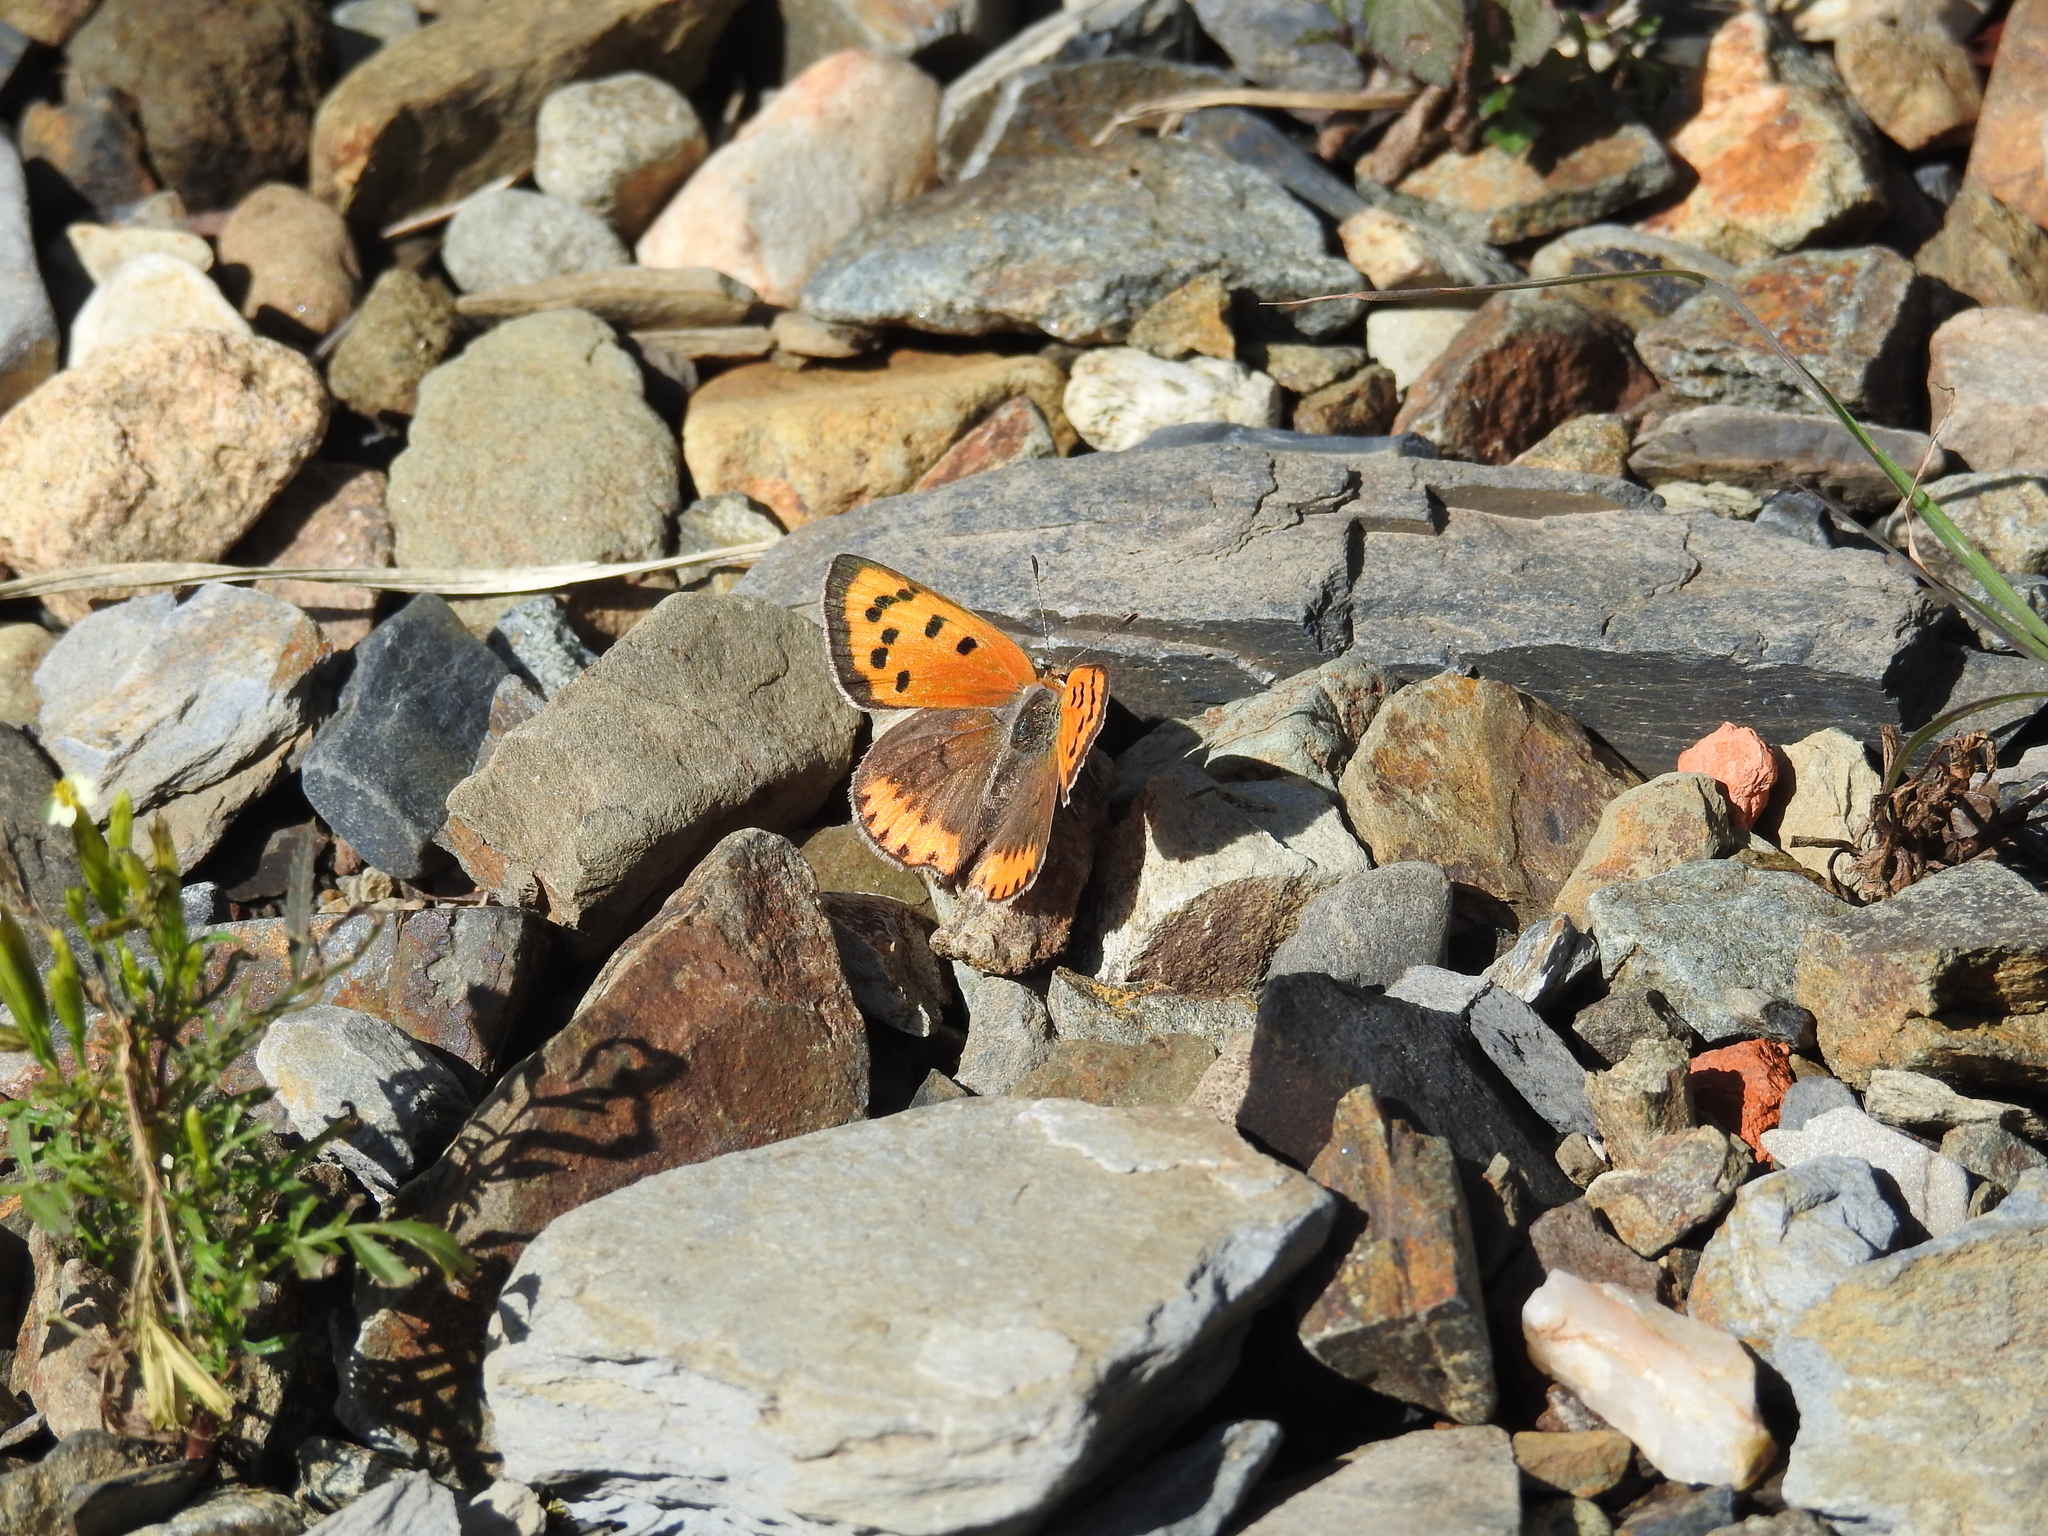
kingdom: Animalia
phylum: Arthropoda
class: Insecta
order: Lepidoptera
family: Lycaenidae
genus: Lycaena
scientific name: Lycaena phlaeas
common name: Small copper
